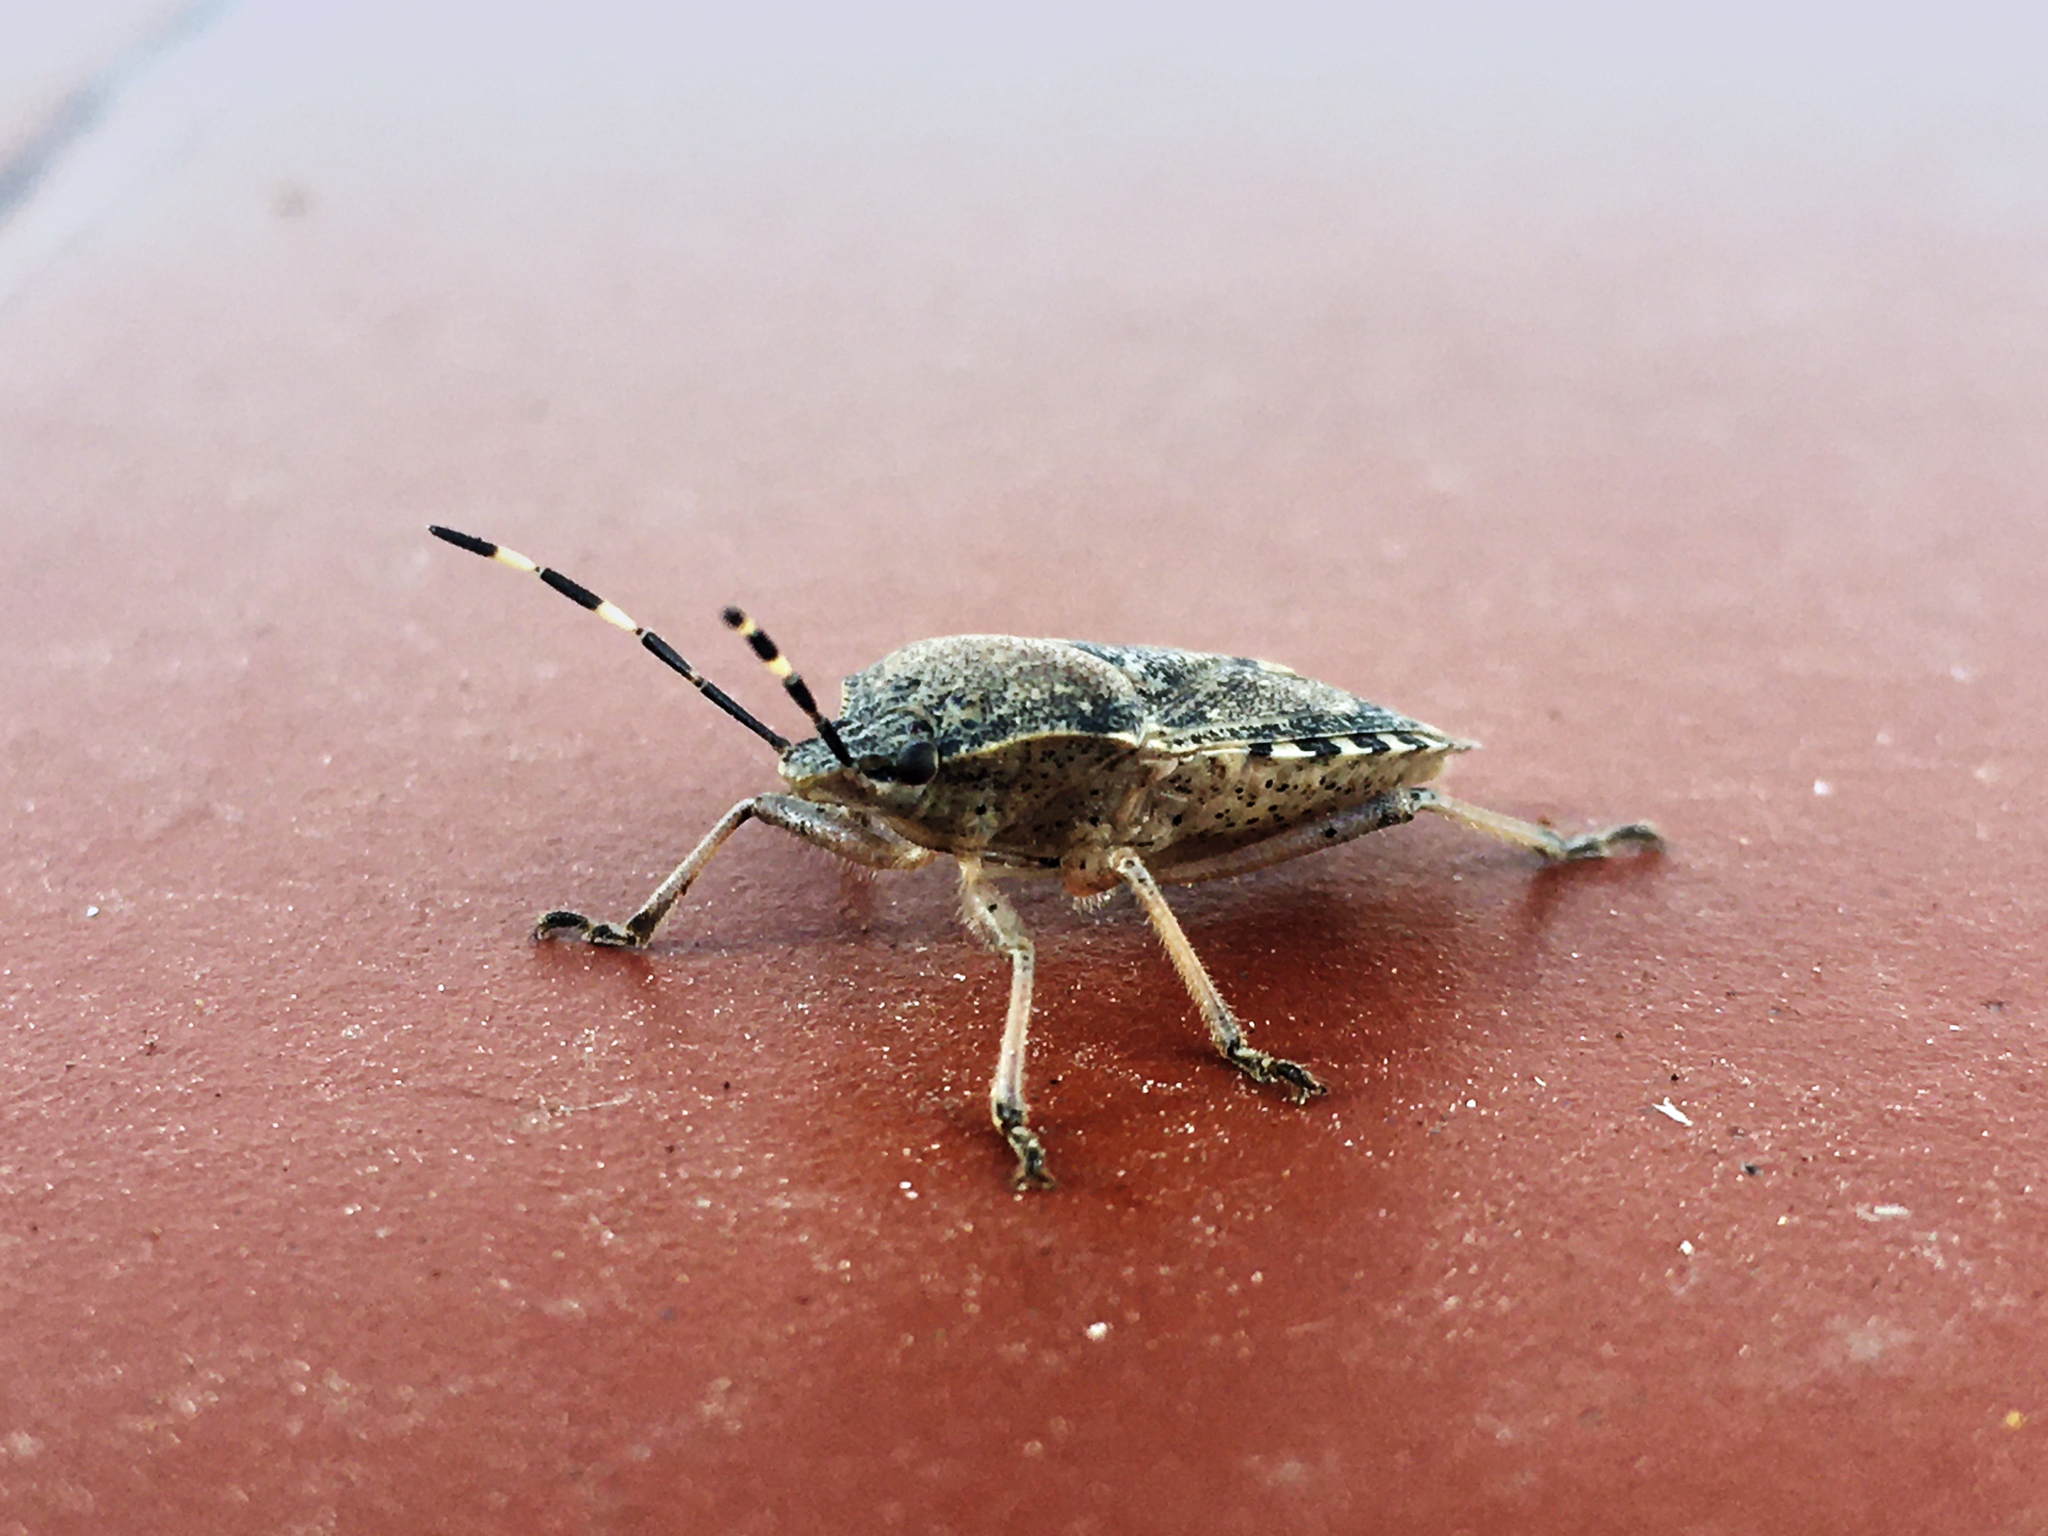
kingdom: Animalia
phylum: Arthropoda
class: Insecta
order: Hemiptera
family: Pentatomidae
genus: Rhaphigaster
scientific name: Rhaphigaster nebulosa
